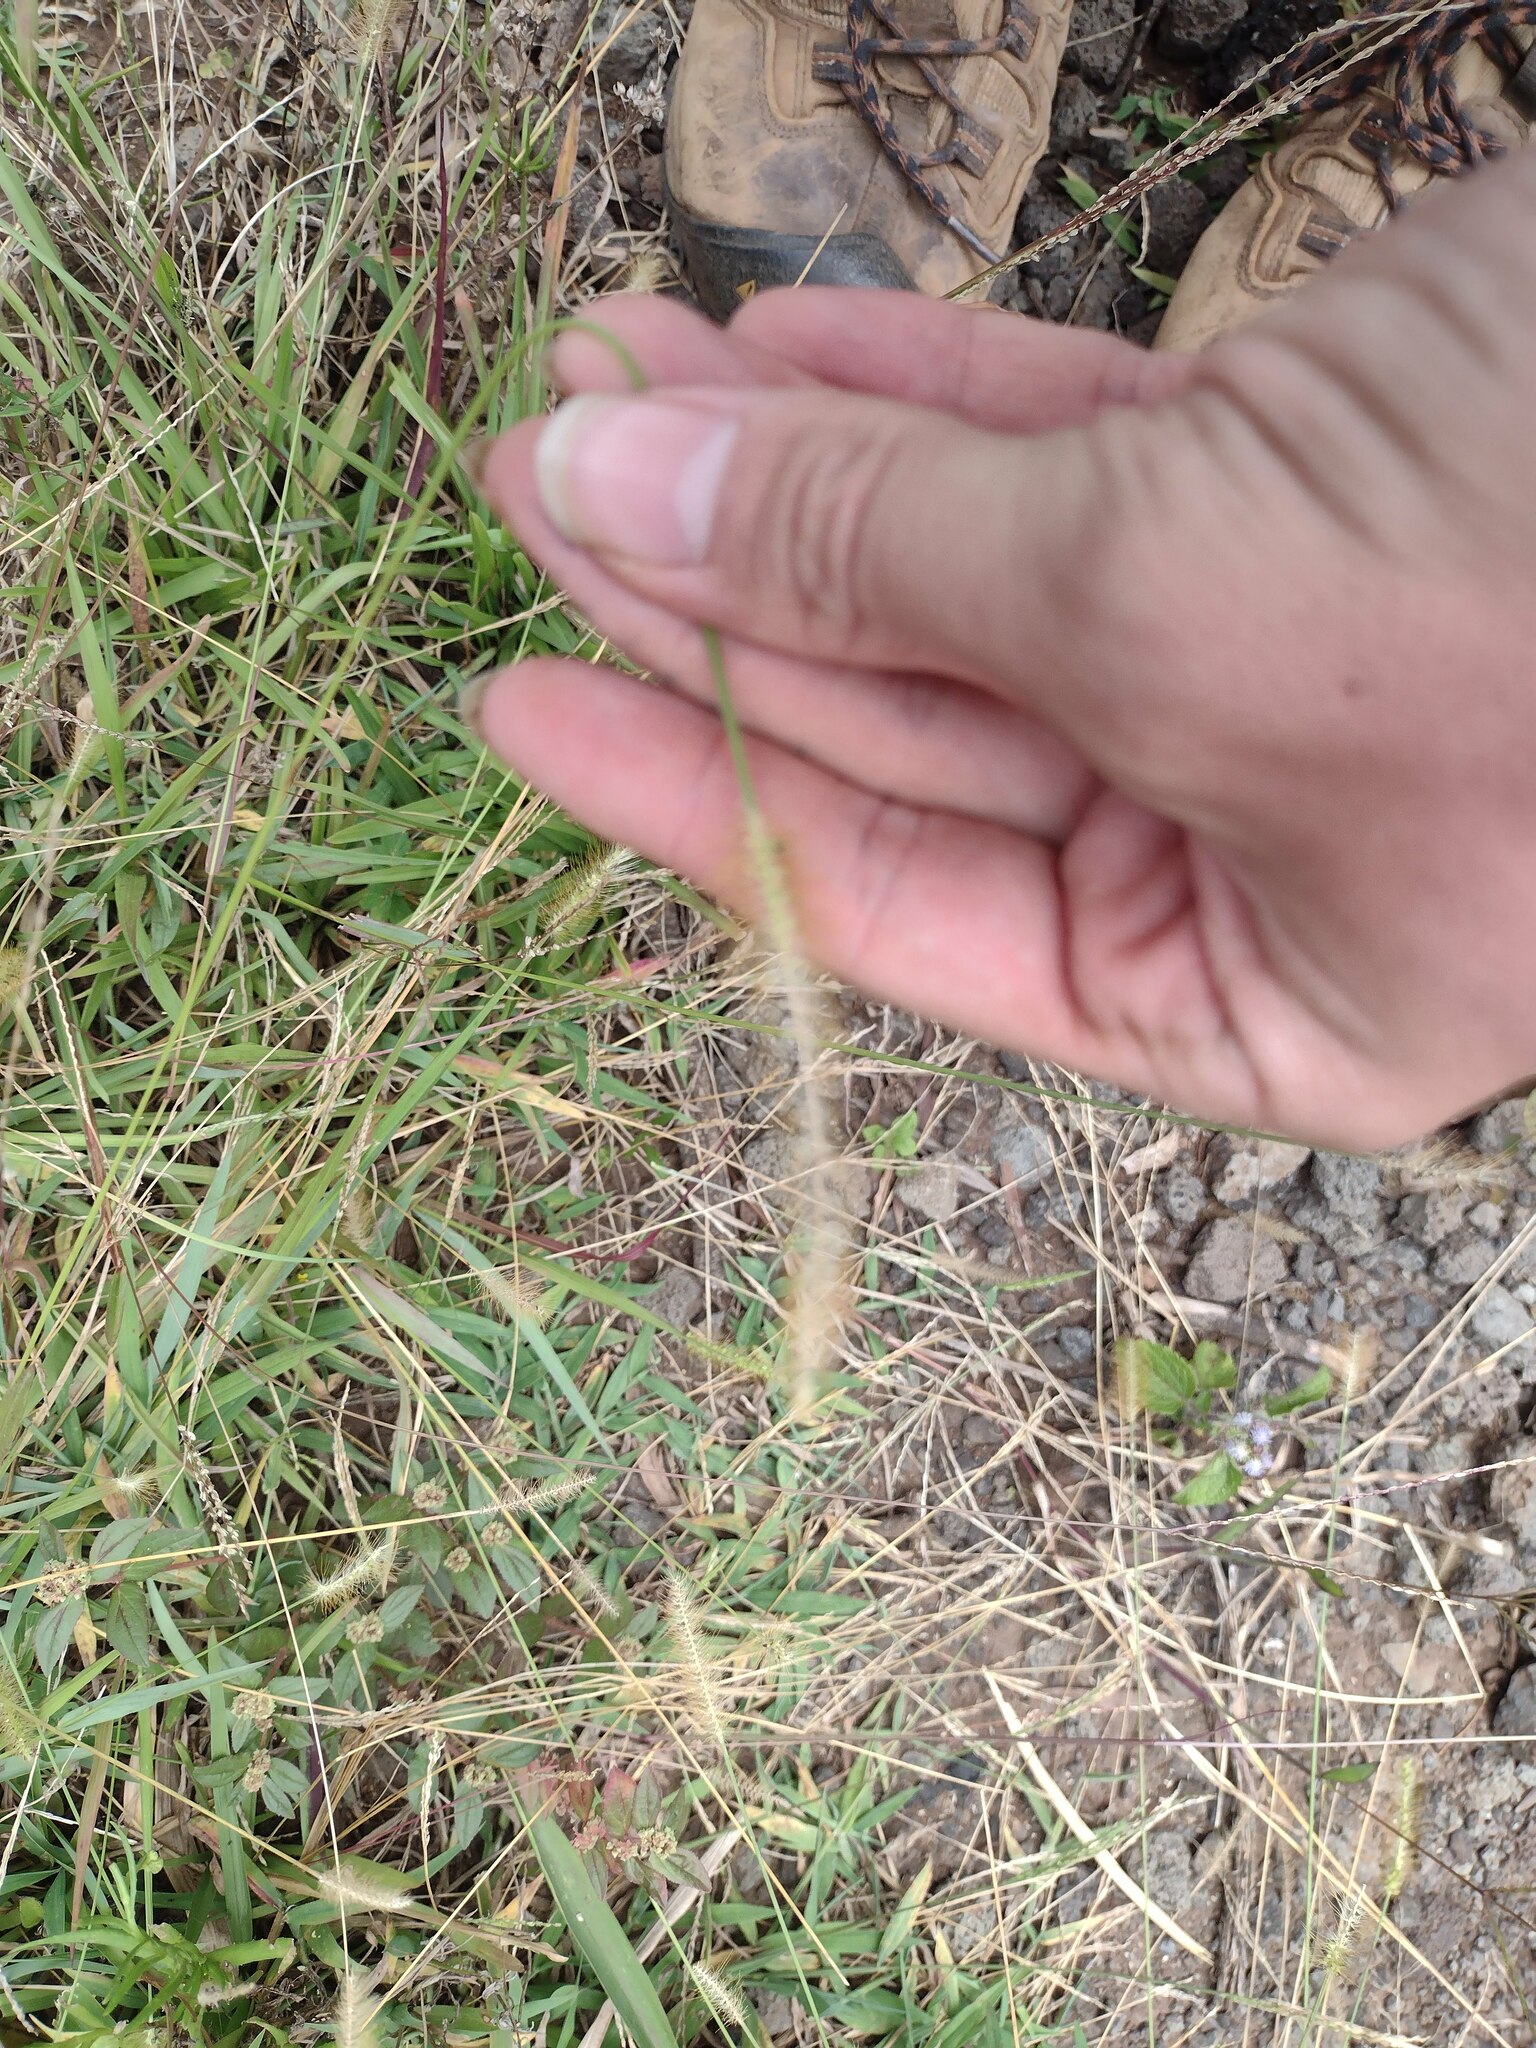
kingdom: Plantae
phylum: Tracheophyta
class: Liliopsida
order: Poales
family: Poaceae
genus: Setaria
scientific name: Setaria parviflora
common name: Knotroot bristle-grass
